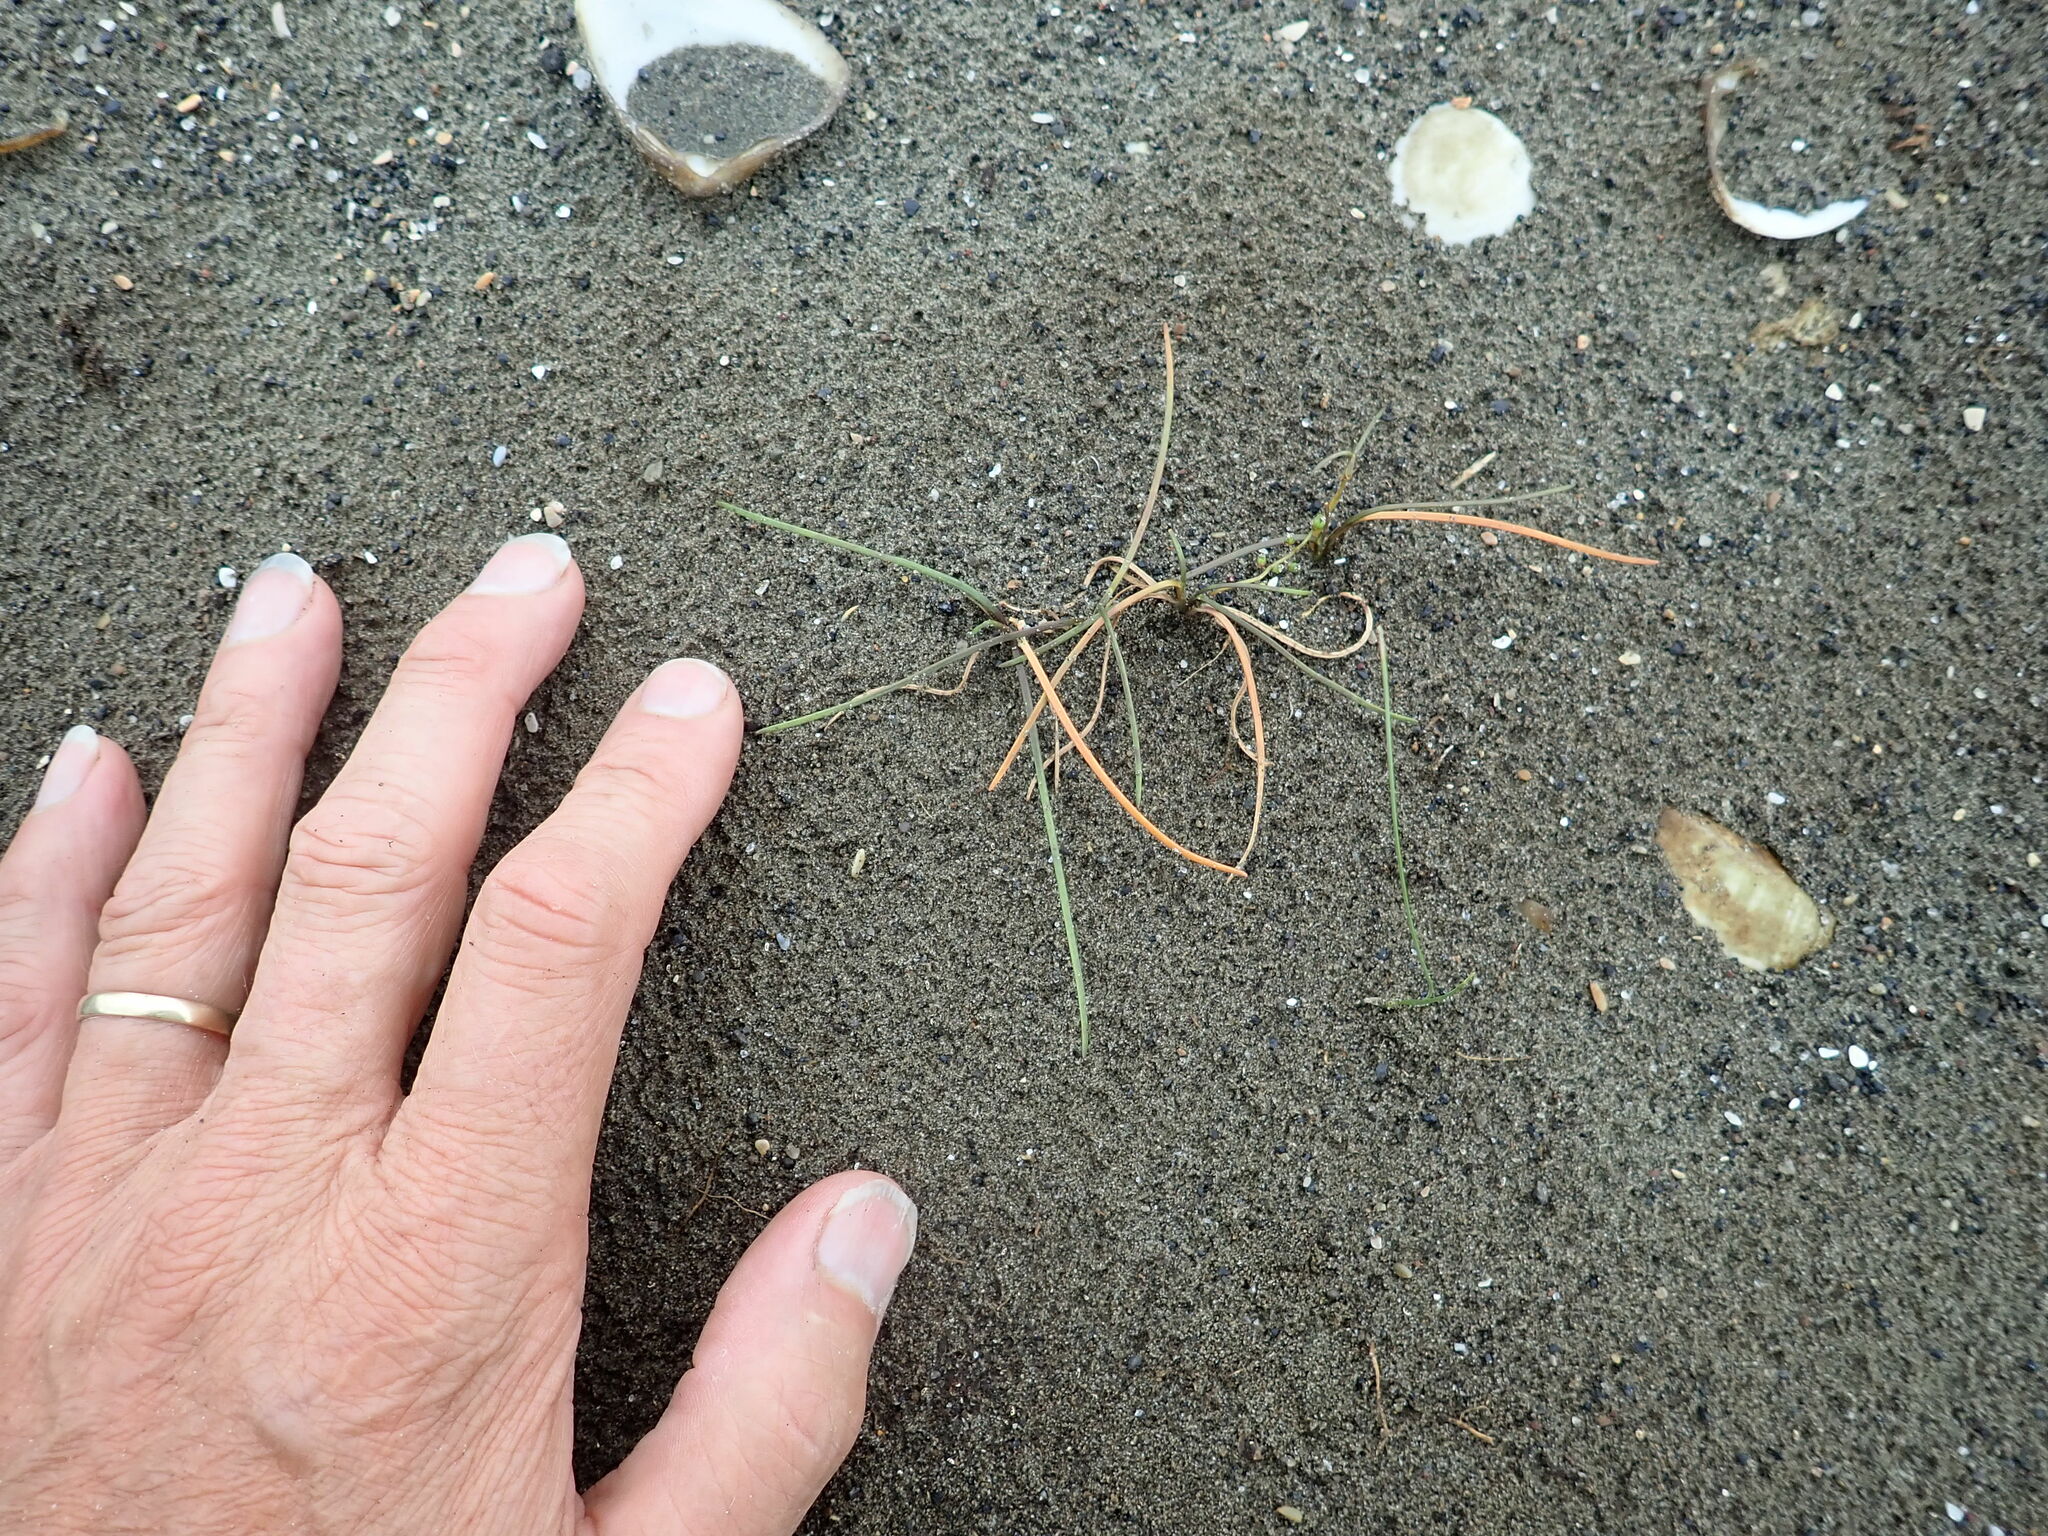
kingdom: Plantae
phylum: Tracheophyta
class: Liliopsida
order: Alismatales
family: Juncaginaceae
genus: Triglochin
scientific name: Triglochin striata
